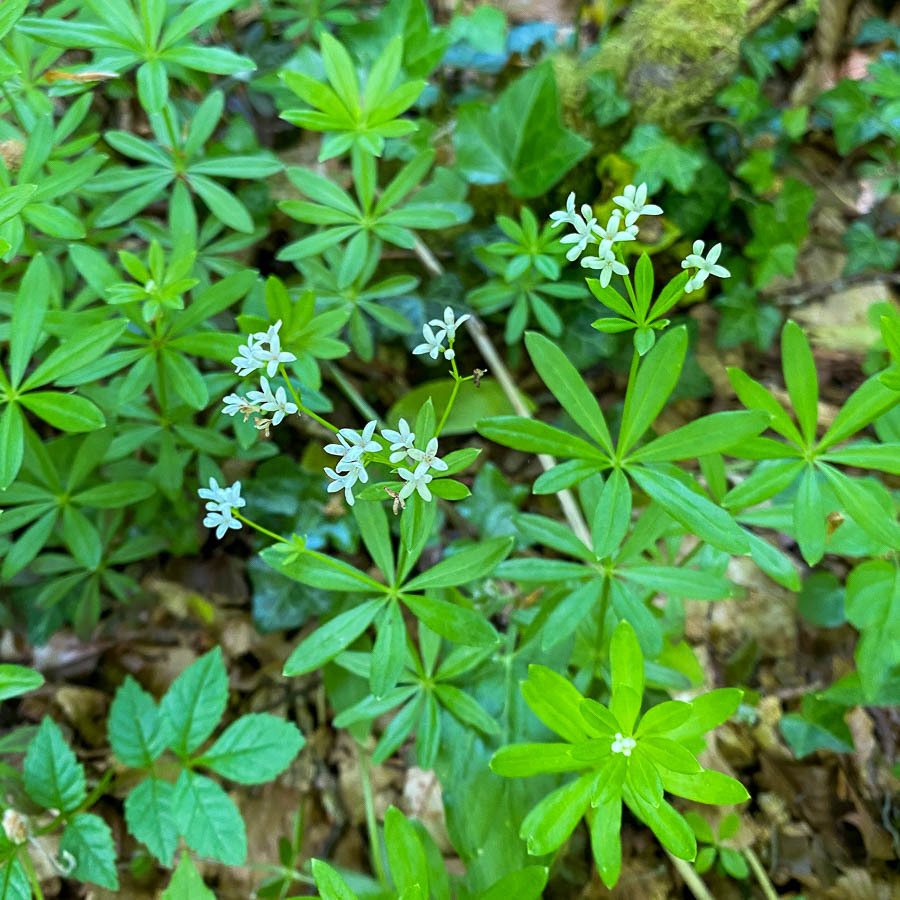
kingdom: Plantae
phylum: Tracheophyta
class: Magnoliopsida
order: Gentianales
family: Rubiaceae
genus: Galium
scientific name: Galium odoratum
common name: Sweet woodruff
